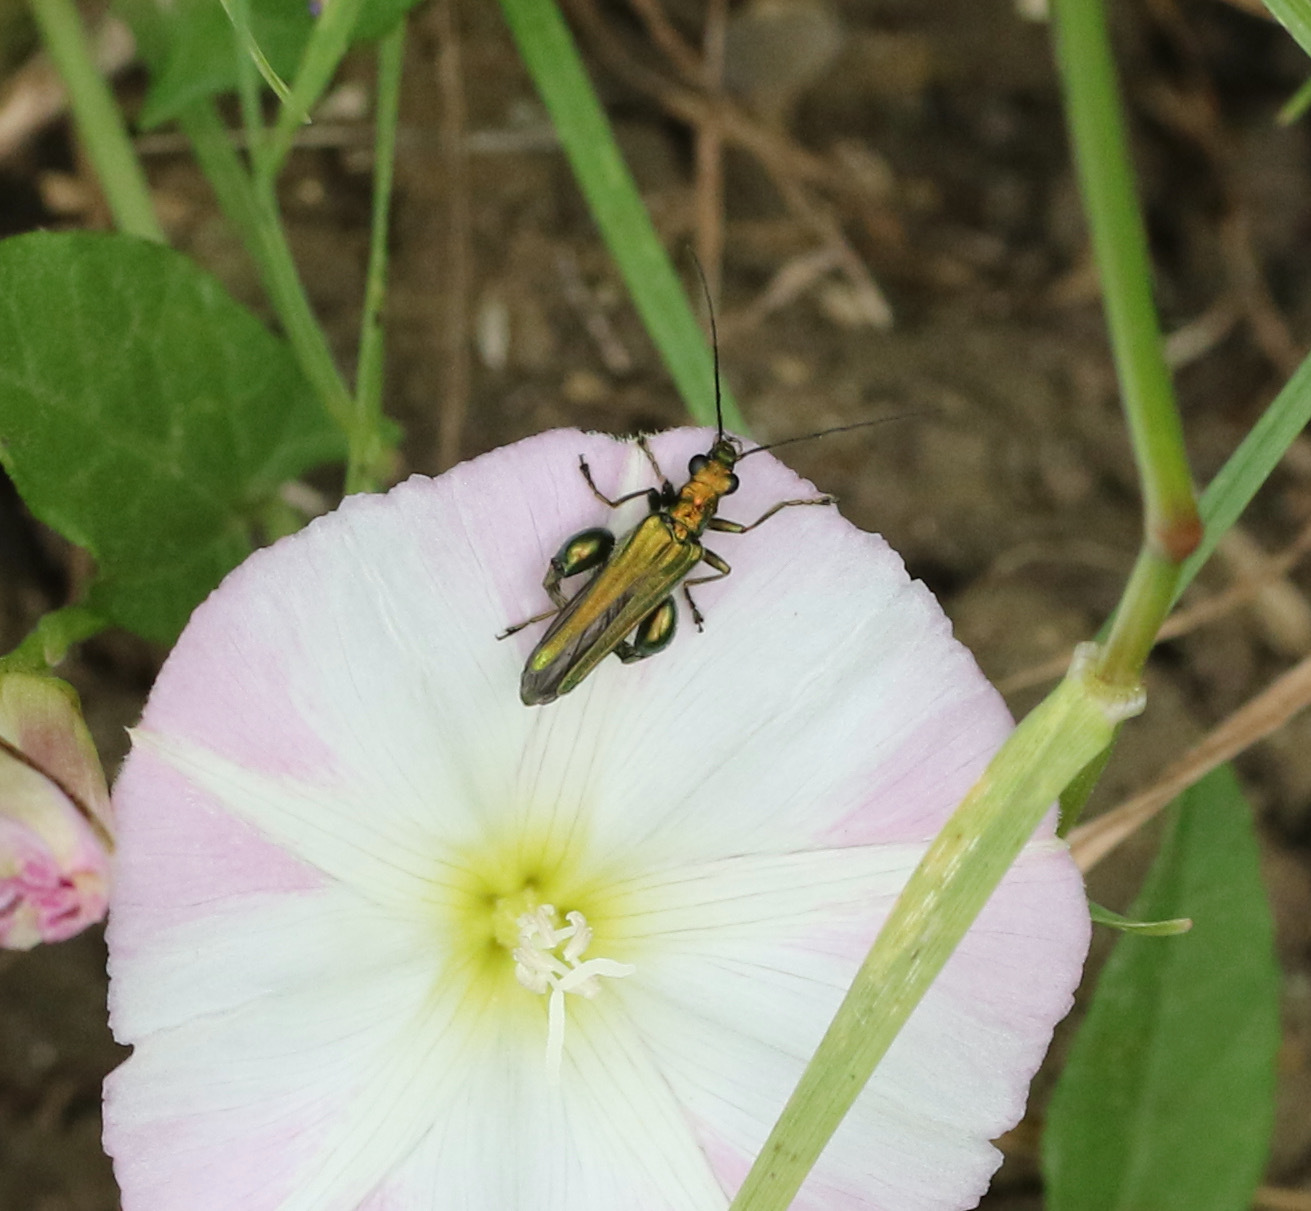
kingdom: Animalia
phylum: Arthropoda
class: Insecta
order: Coleoptera
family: Oedemeridae
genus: Oedemera
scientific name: Oedemera nobilis
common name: Swollen-thighed beetle
